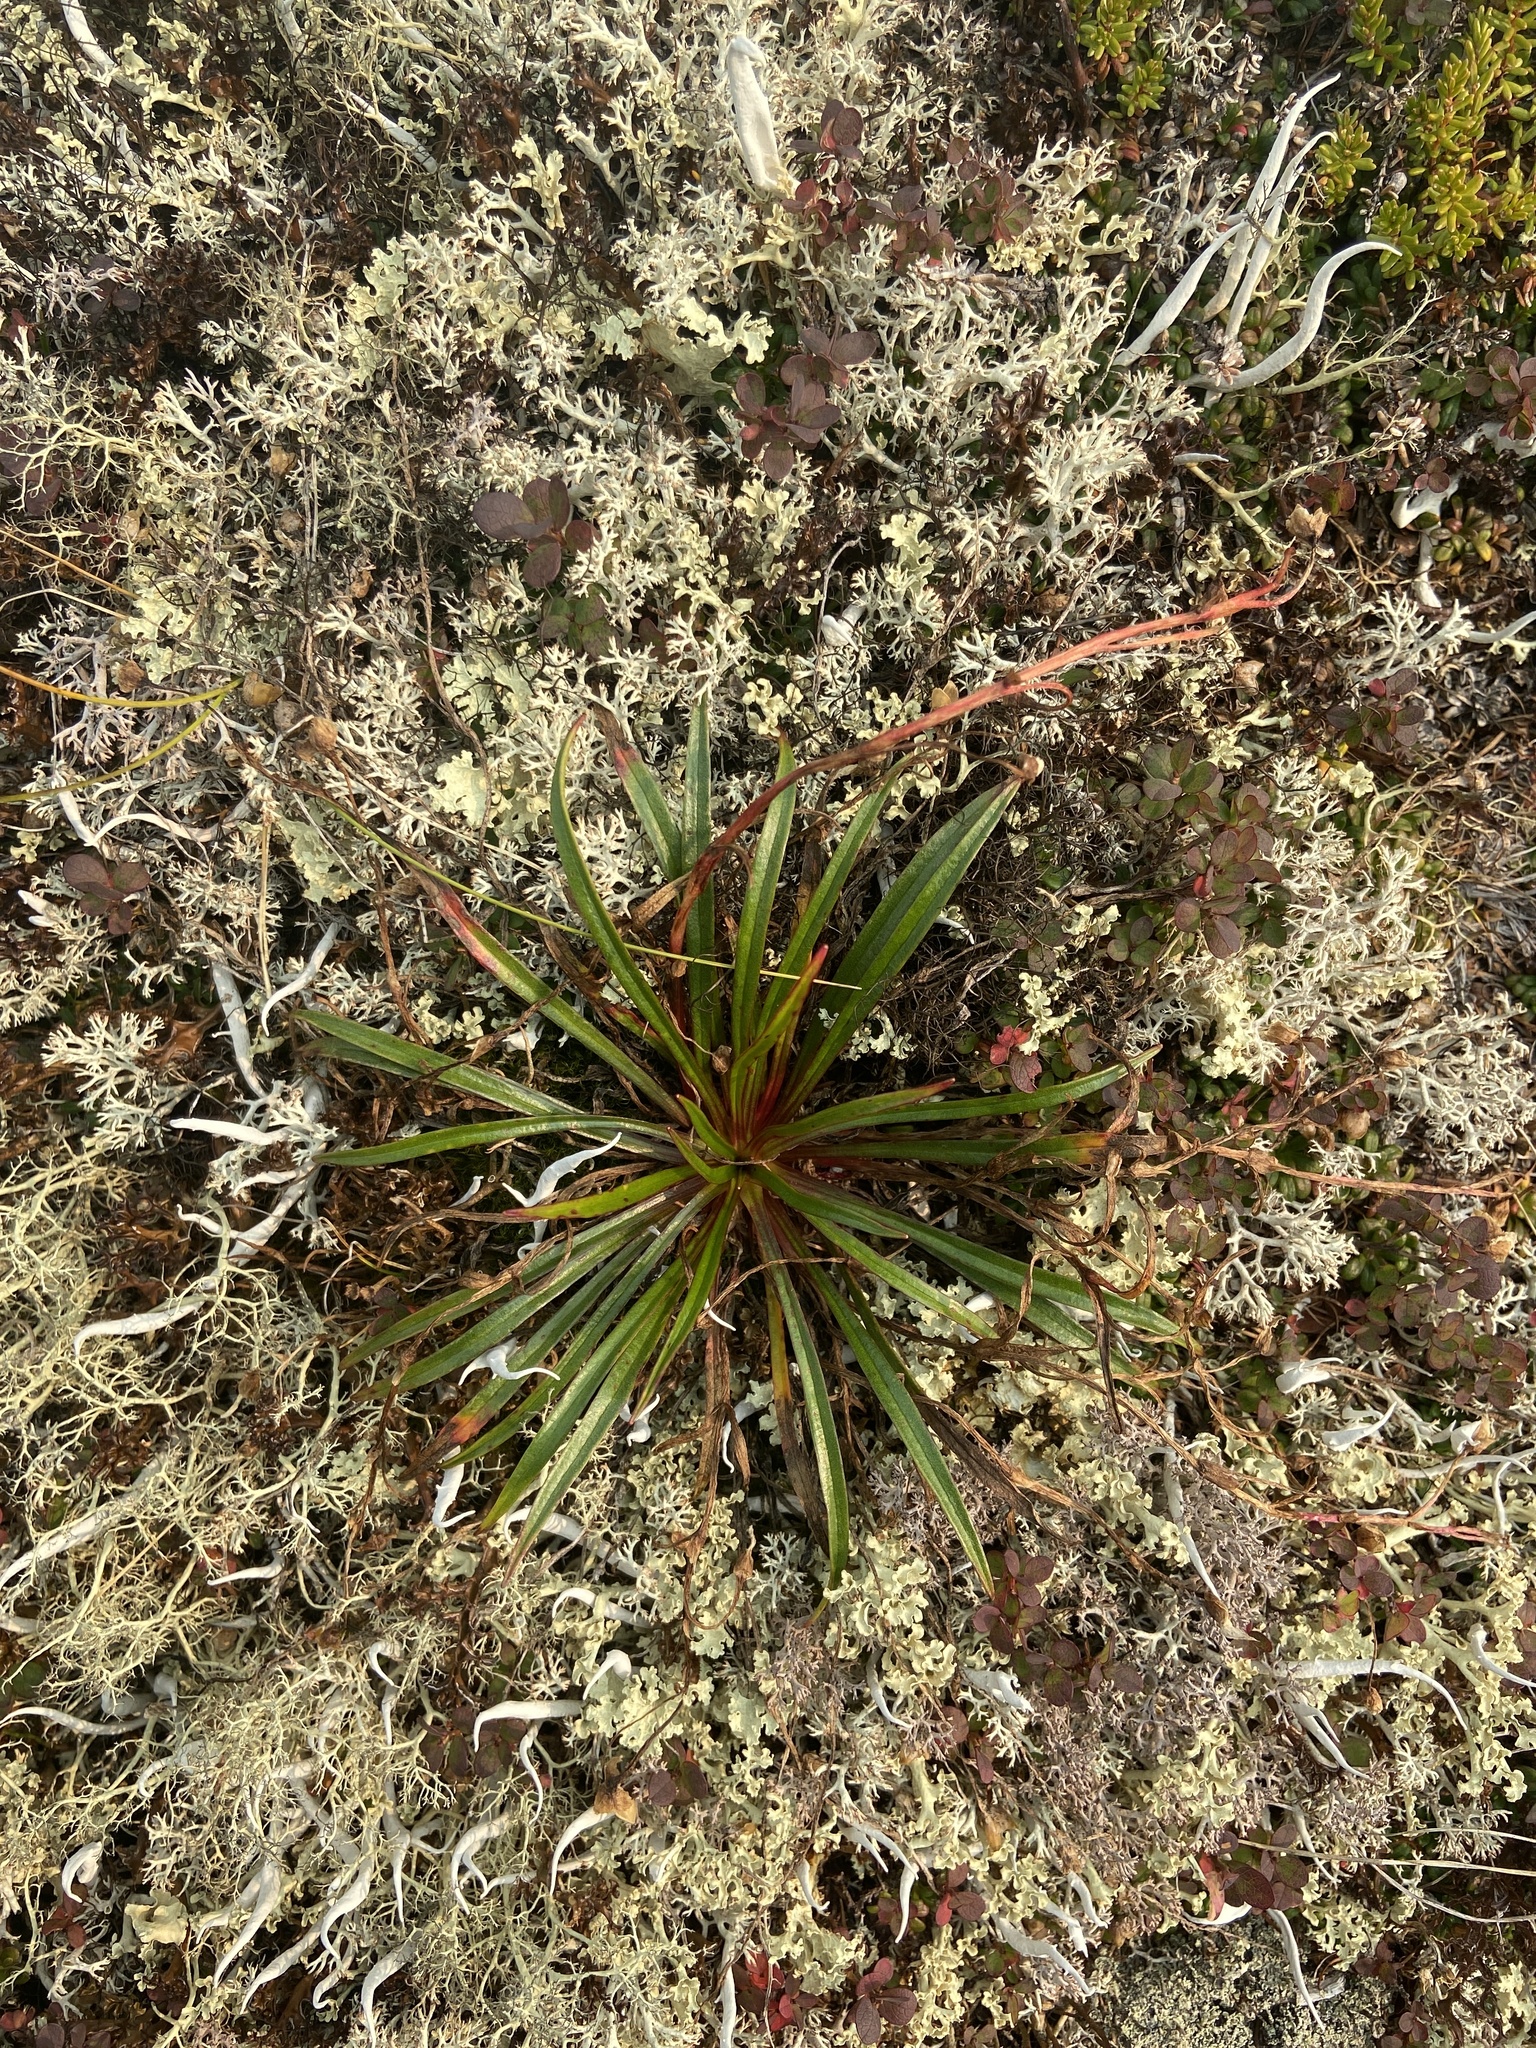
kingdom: Plantae
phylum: Tracheophyta
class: Magnoliopsida
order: Caryophyllales
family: Montiaceae
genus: Claytonia
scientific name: Claytonia acutifolia
